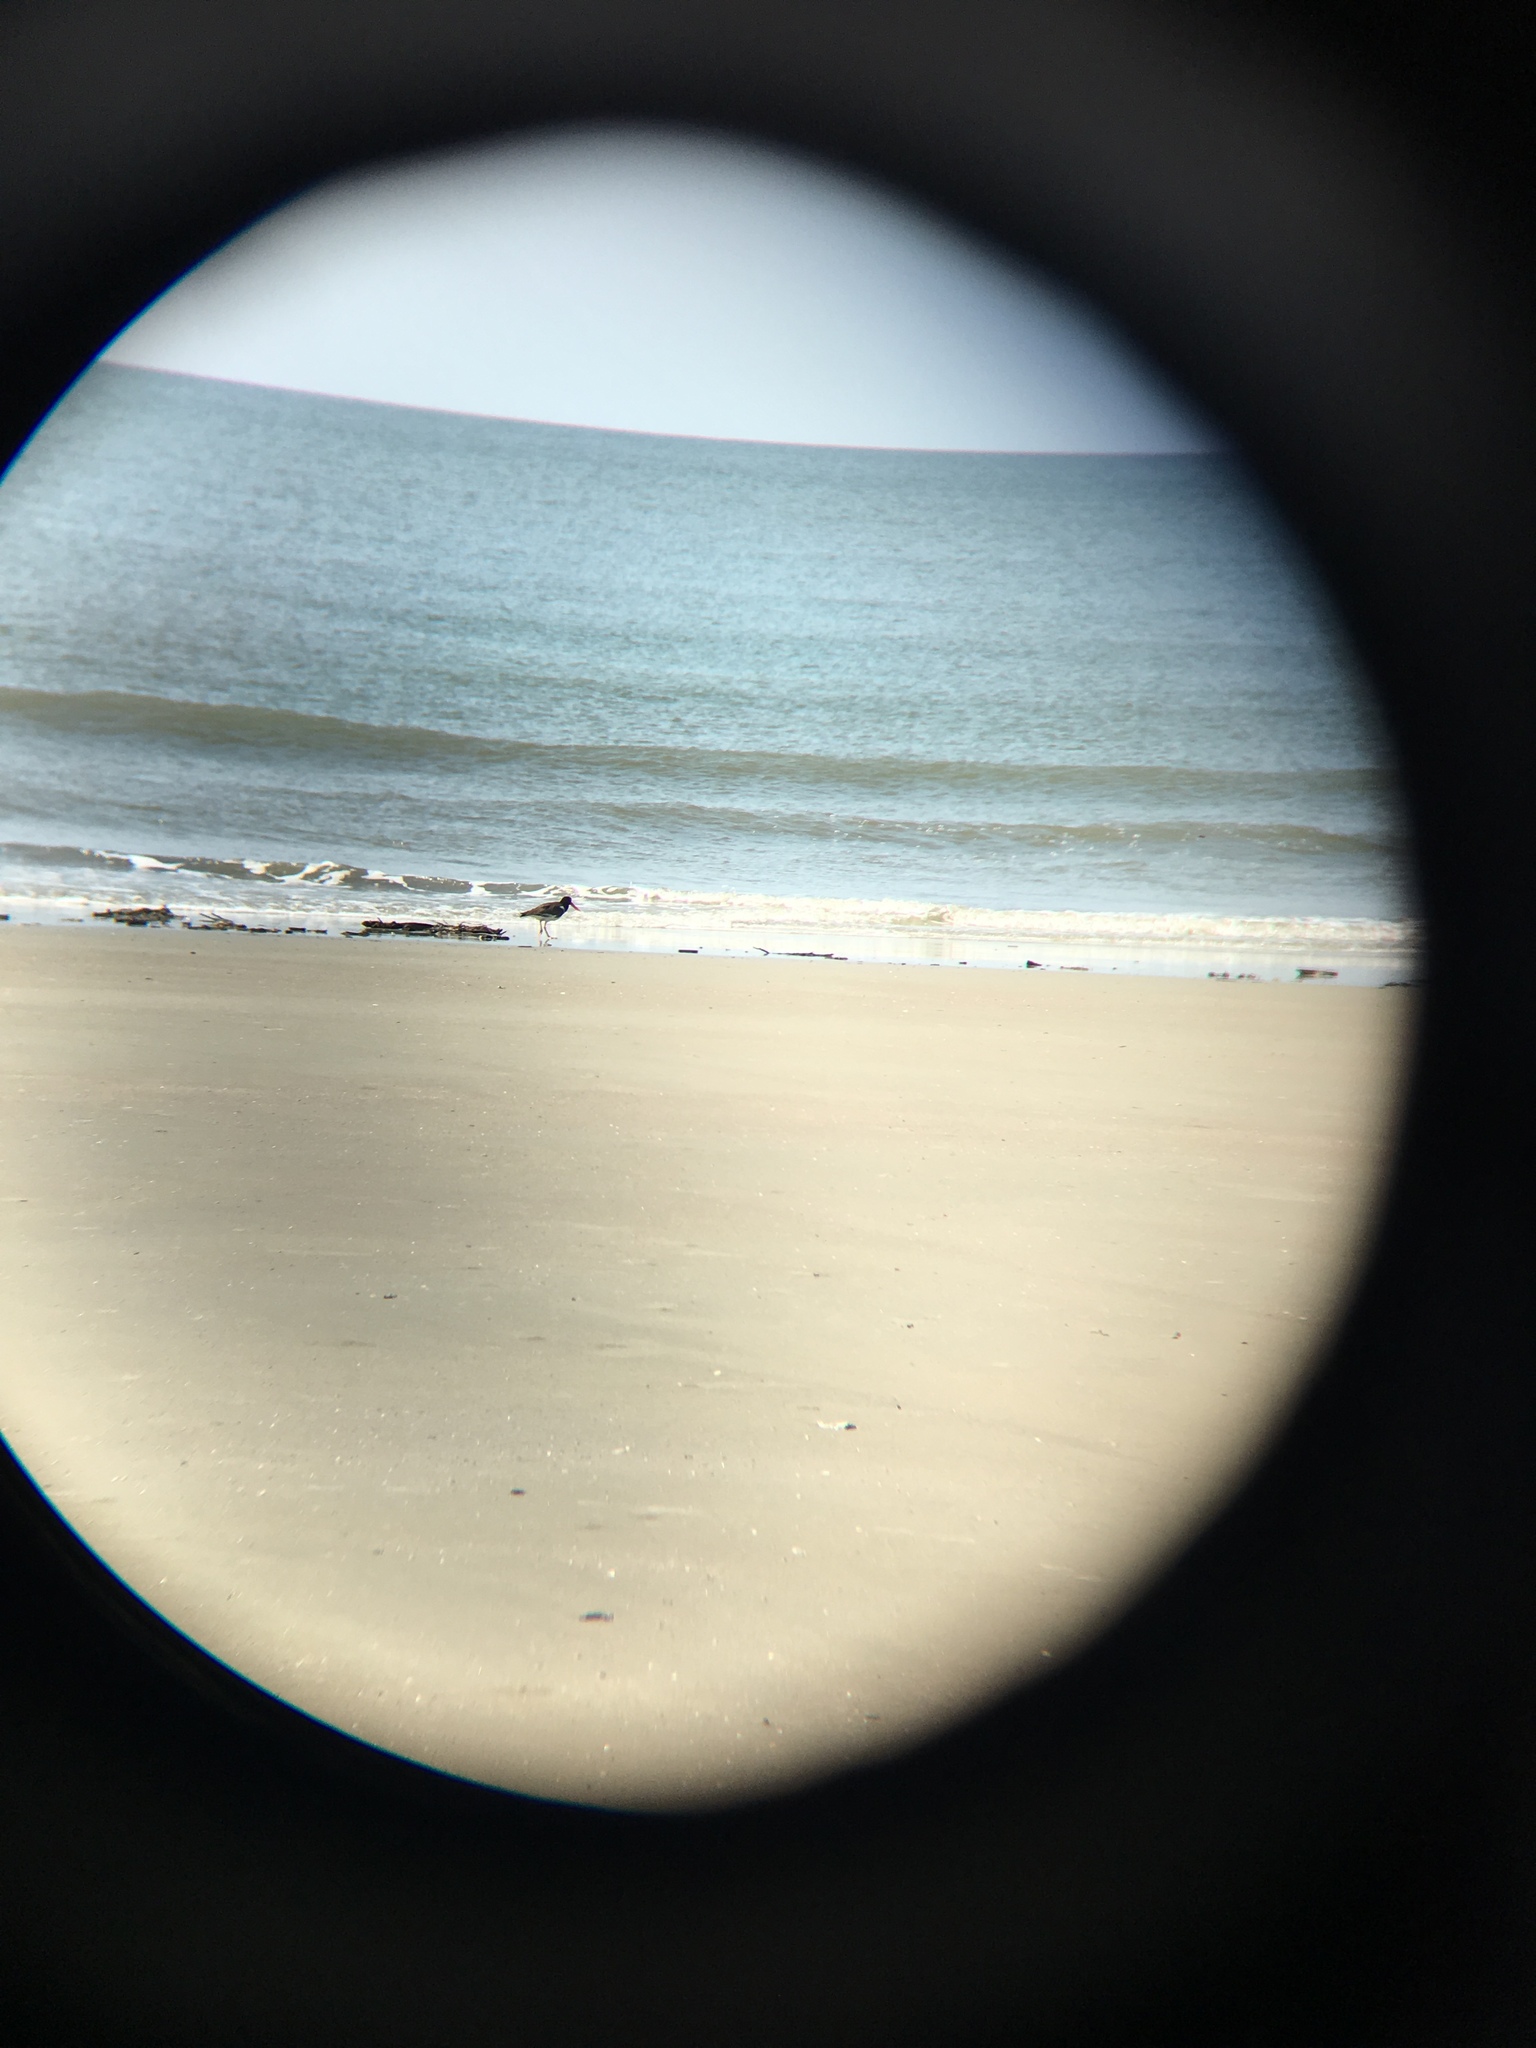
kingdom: Animalia
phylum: Chordata
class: Aves
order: Charadriiformes
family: Haematopodidae
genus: Haematopus
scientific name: Haematopus palliatus
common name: American oystercatcher
